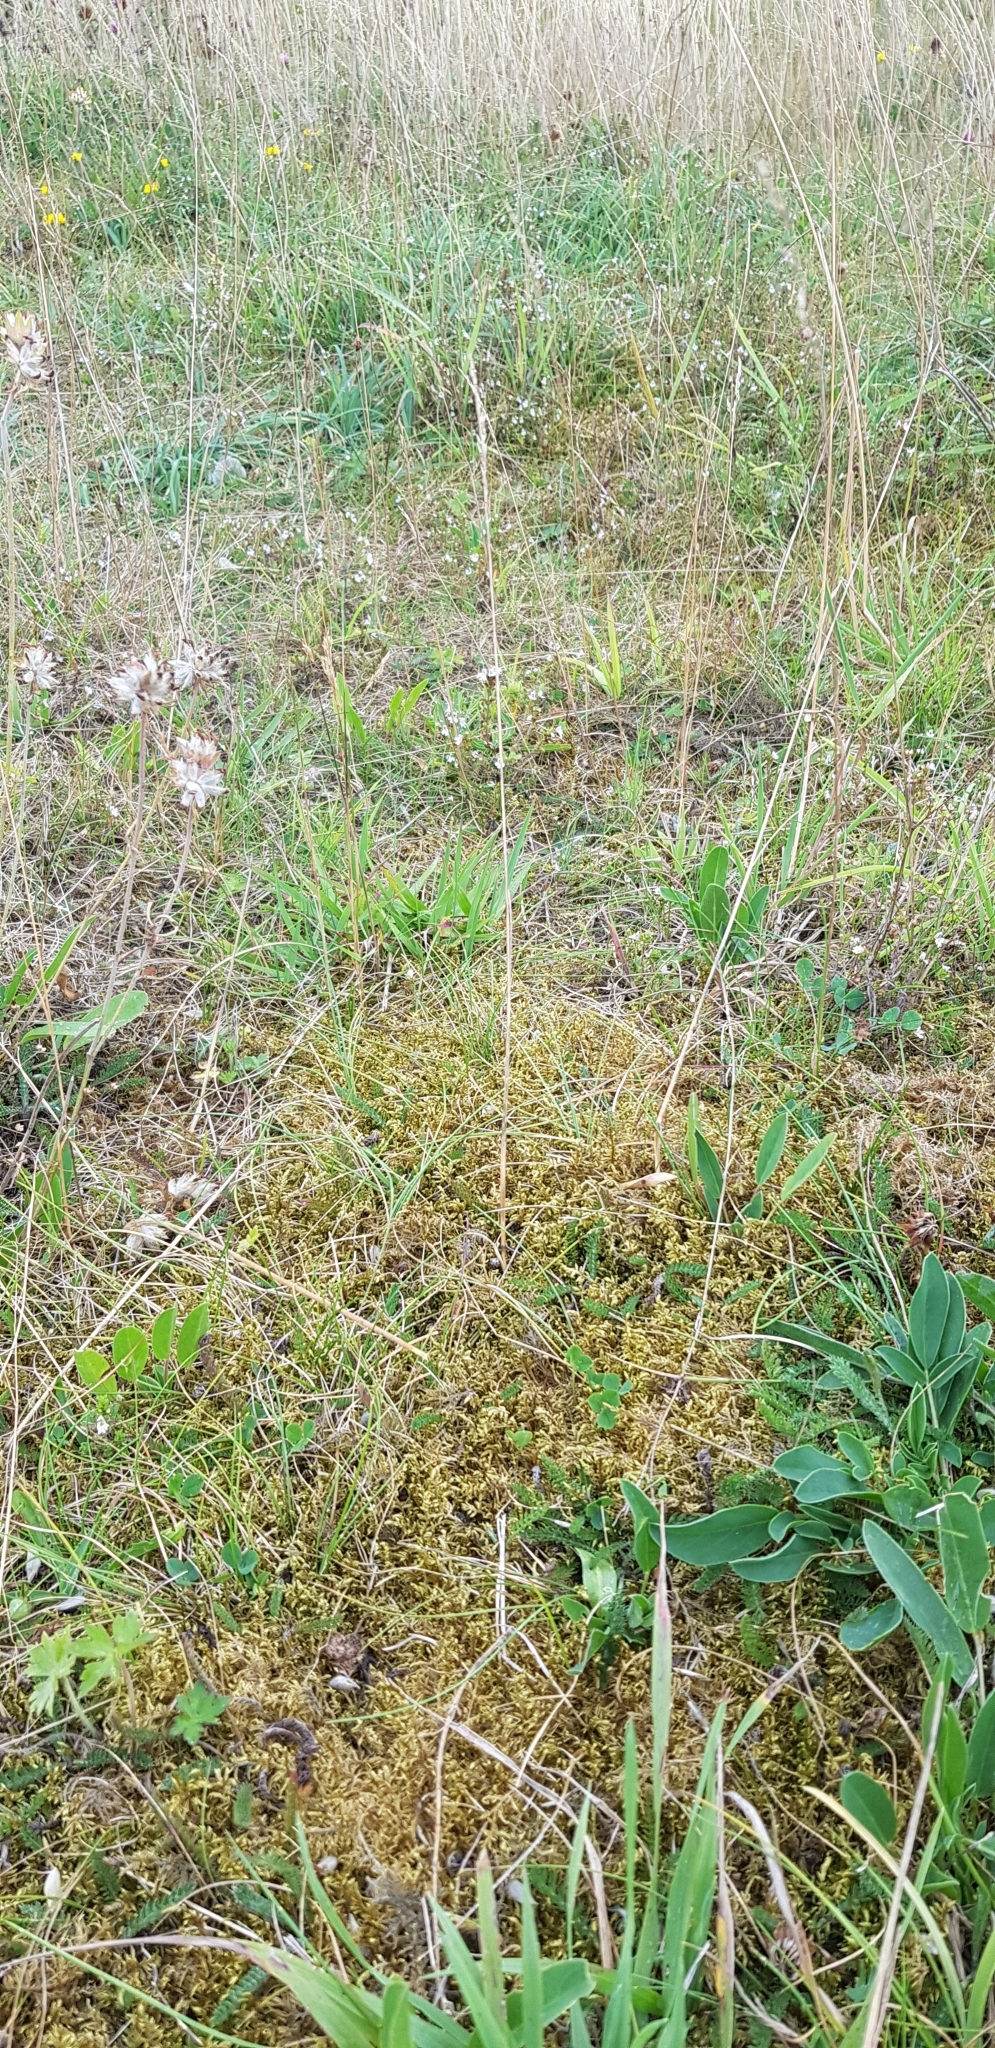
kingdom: Plantae
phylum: Bryophyta
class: Bryopsida
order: Hypnales
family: Hylocomiaceae
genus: Hylocomium
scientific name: Hylocomium splendens
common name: Stairstep moss
